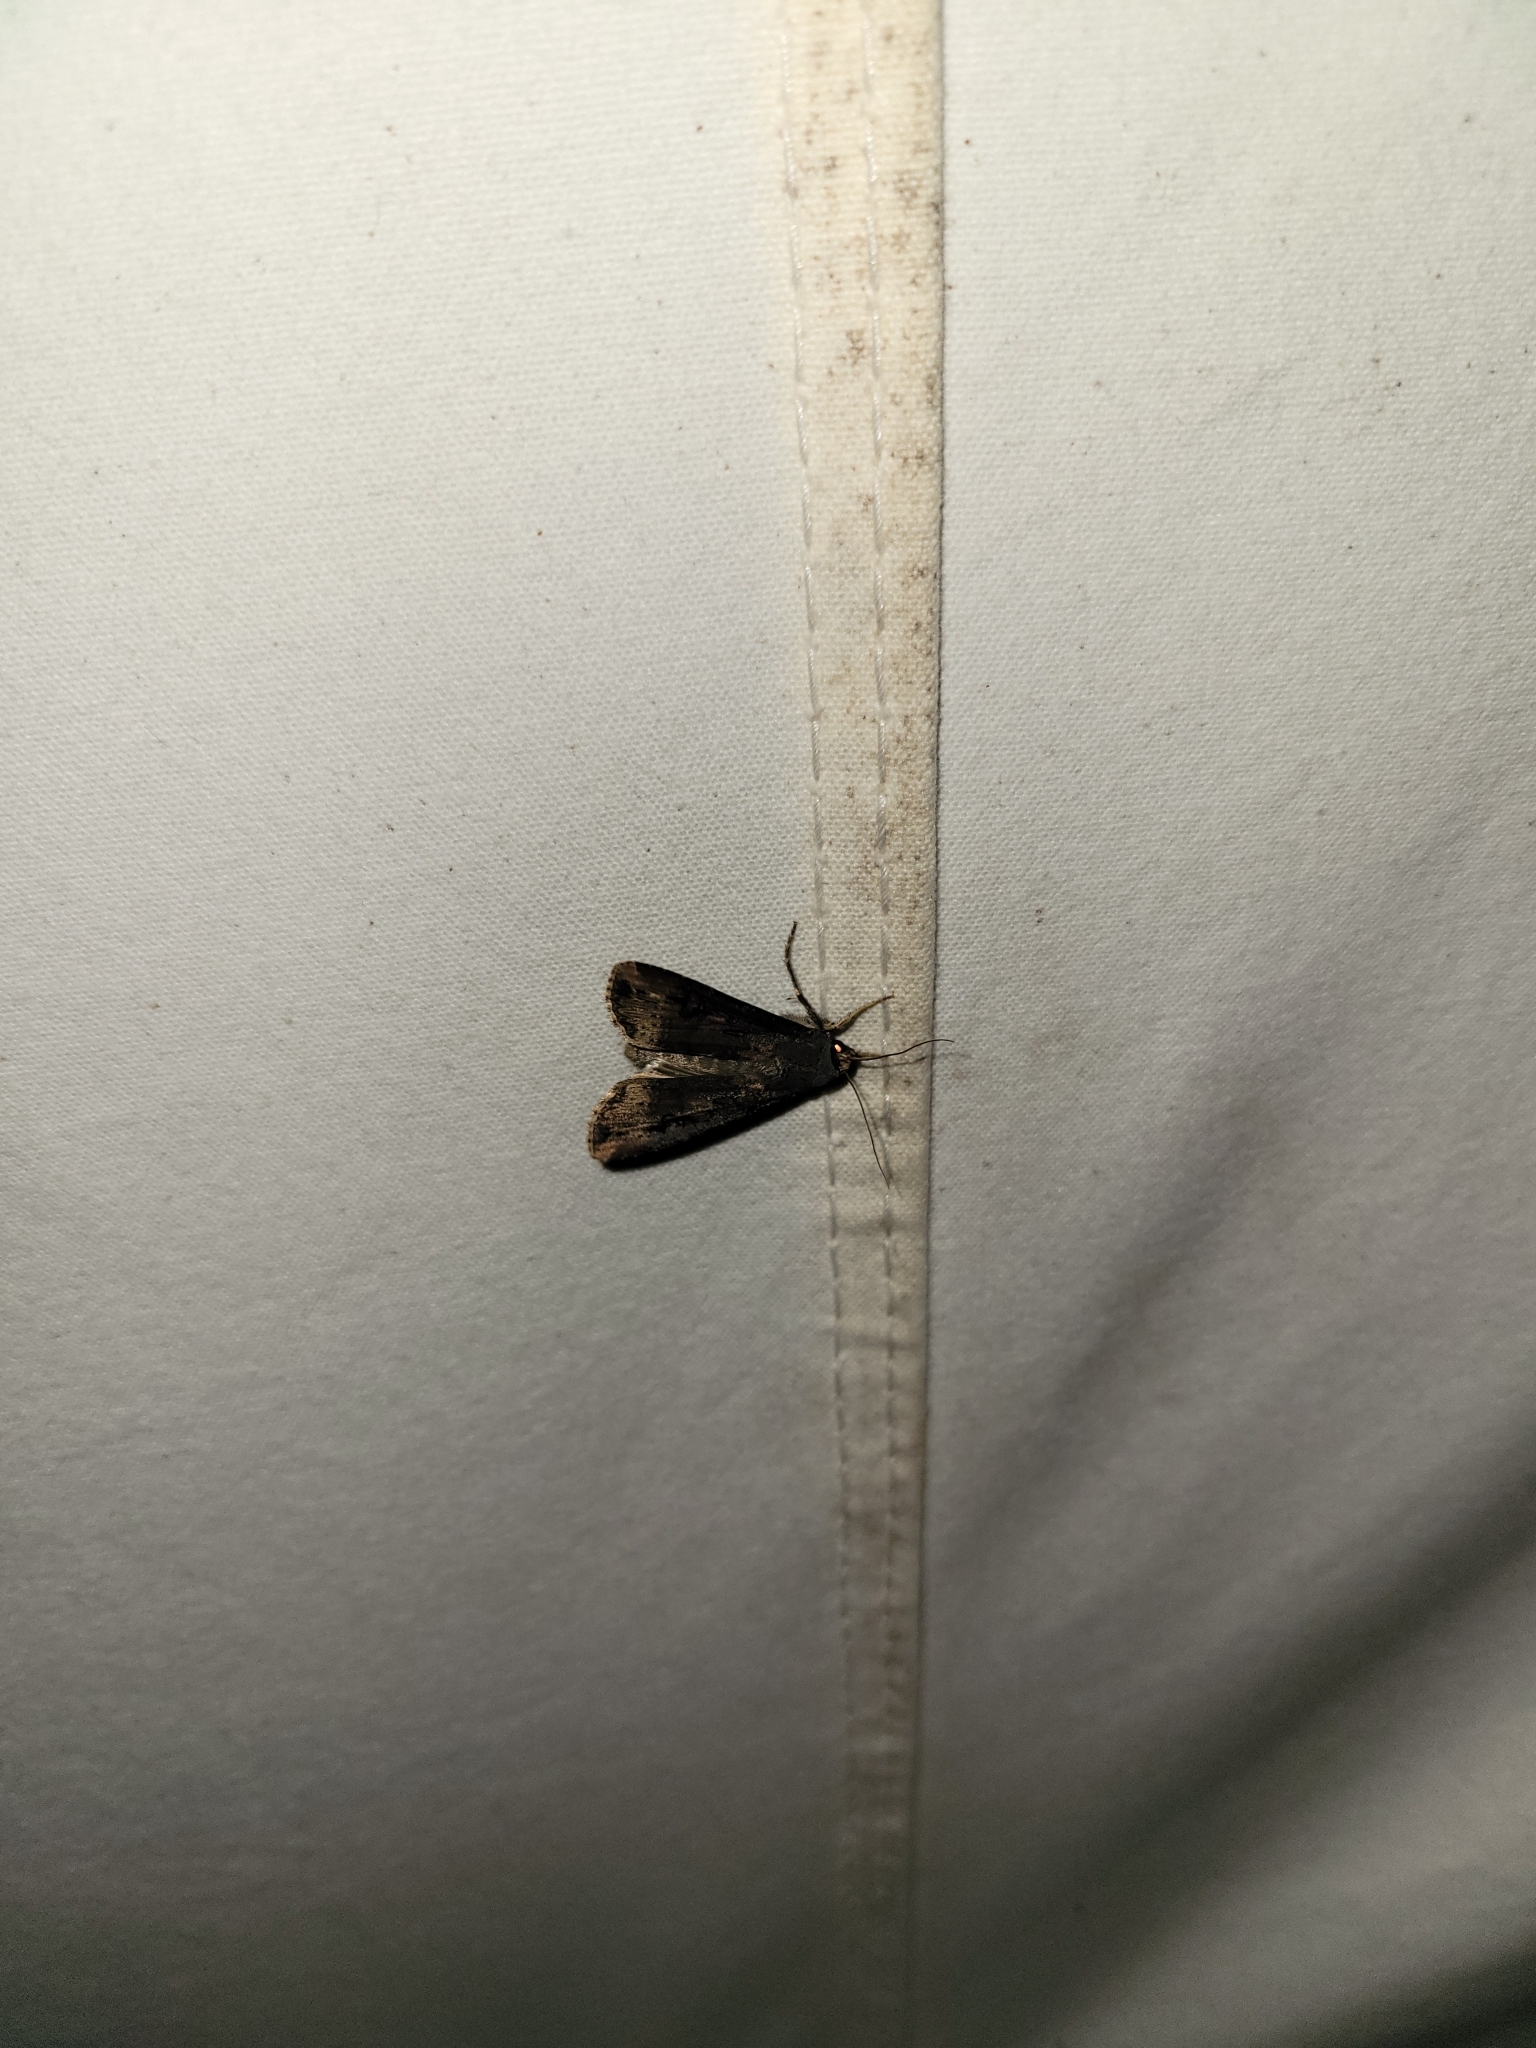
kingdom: Animalia
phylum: Arthropoda
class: Insecta
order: Lepidoptera
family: Noctuidae
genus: Agrotis
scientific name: Agrotis ipsilon
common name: Dark sword-grass
